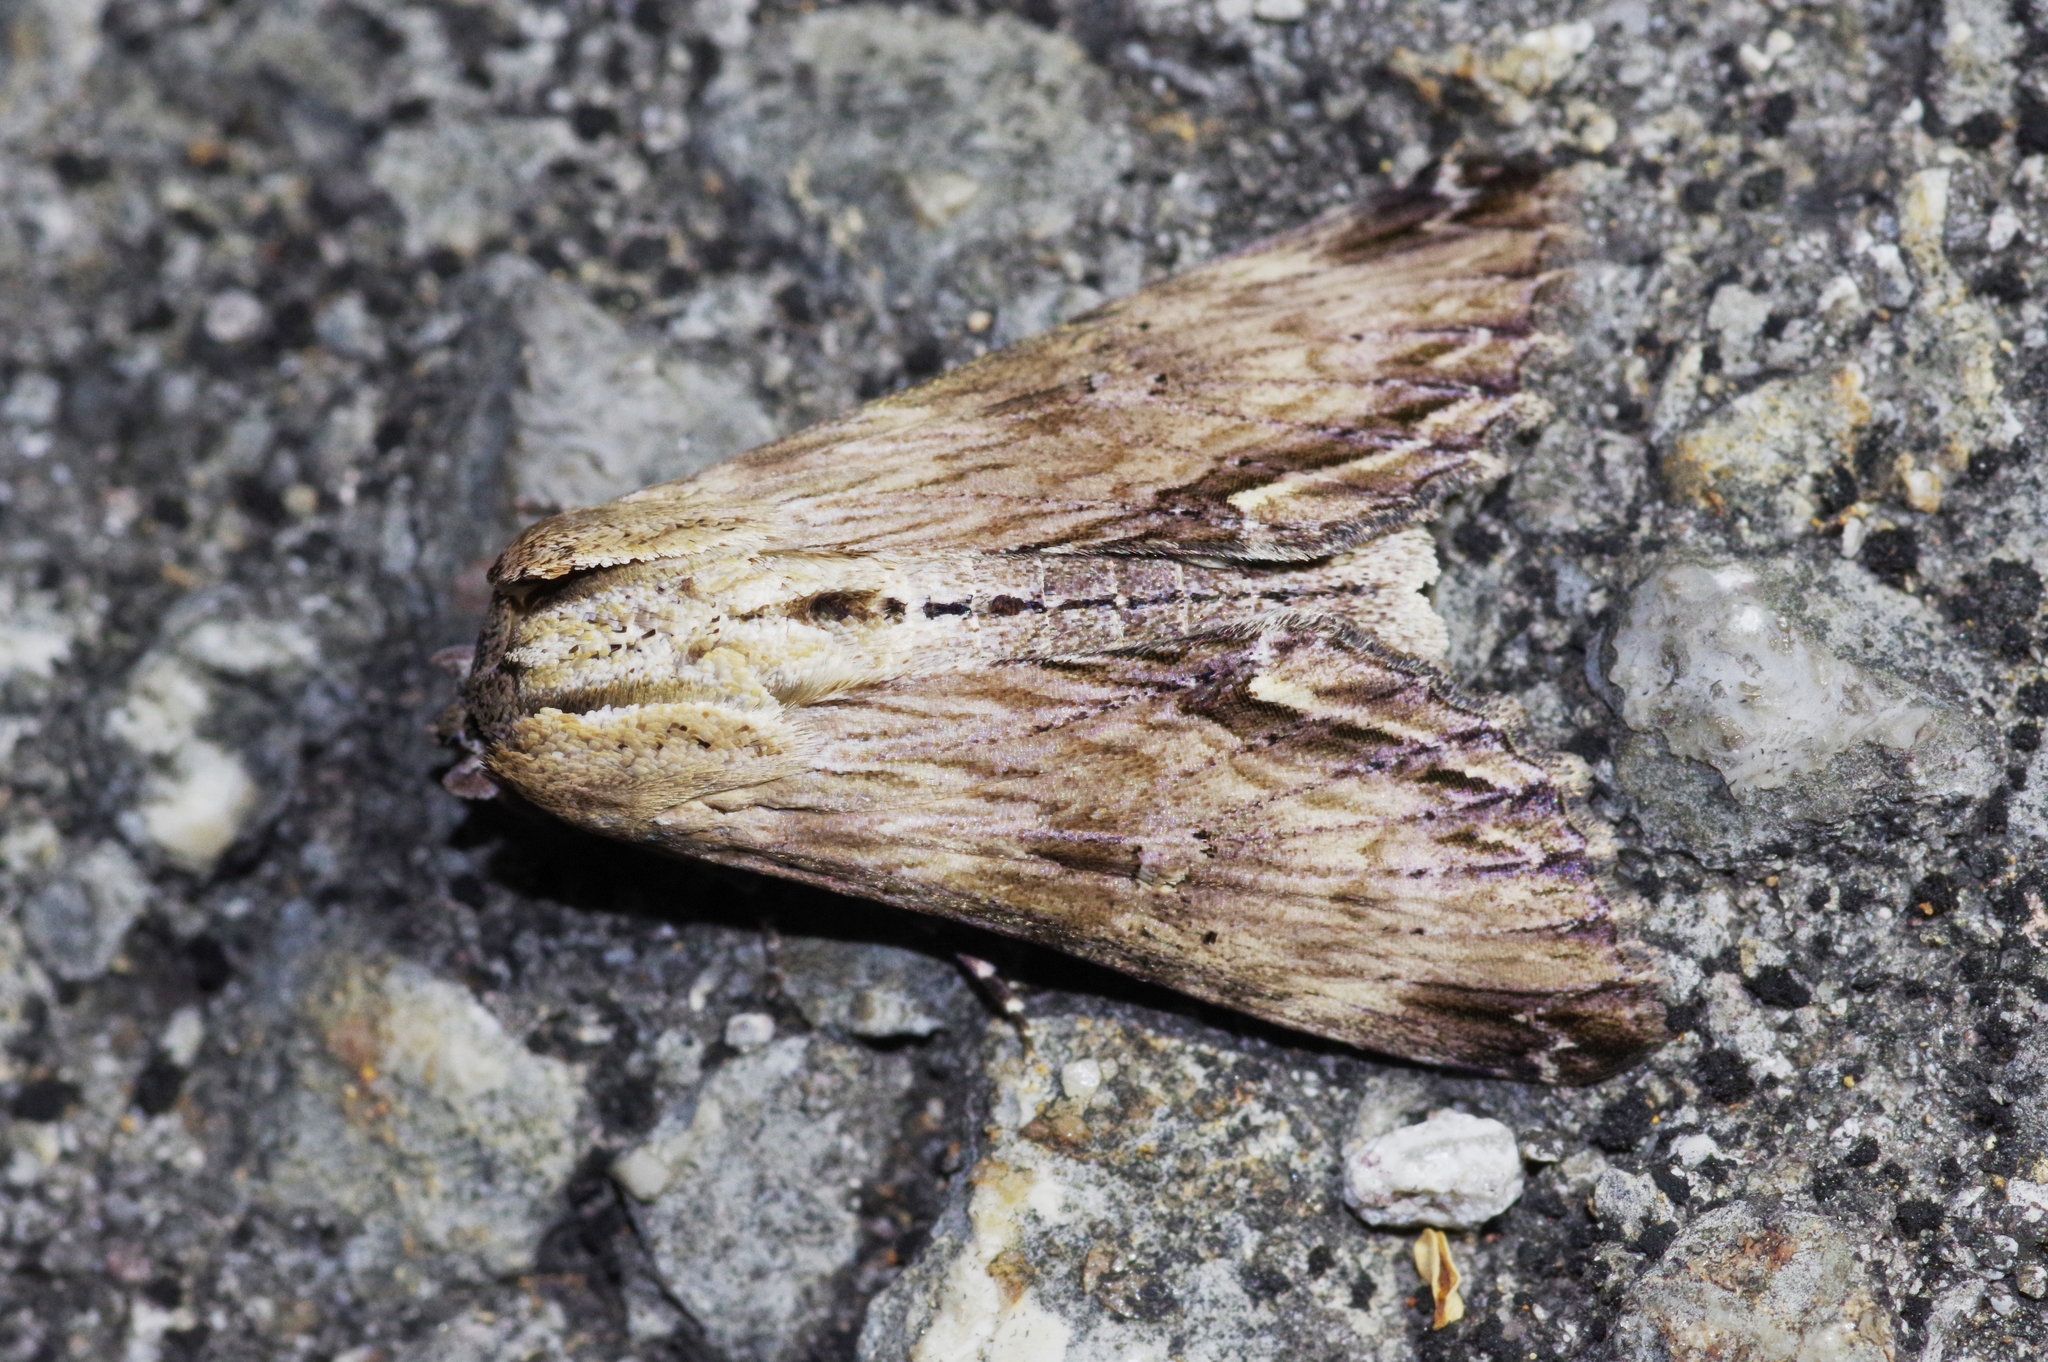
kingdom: Animalia
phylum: Arthropoda
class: Insecta
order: Lepidoptera
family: Euteliidae
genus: Aegilia
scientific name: Aegilia describens
